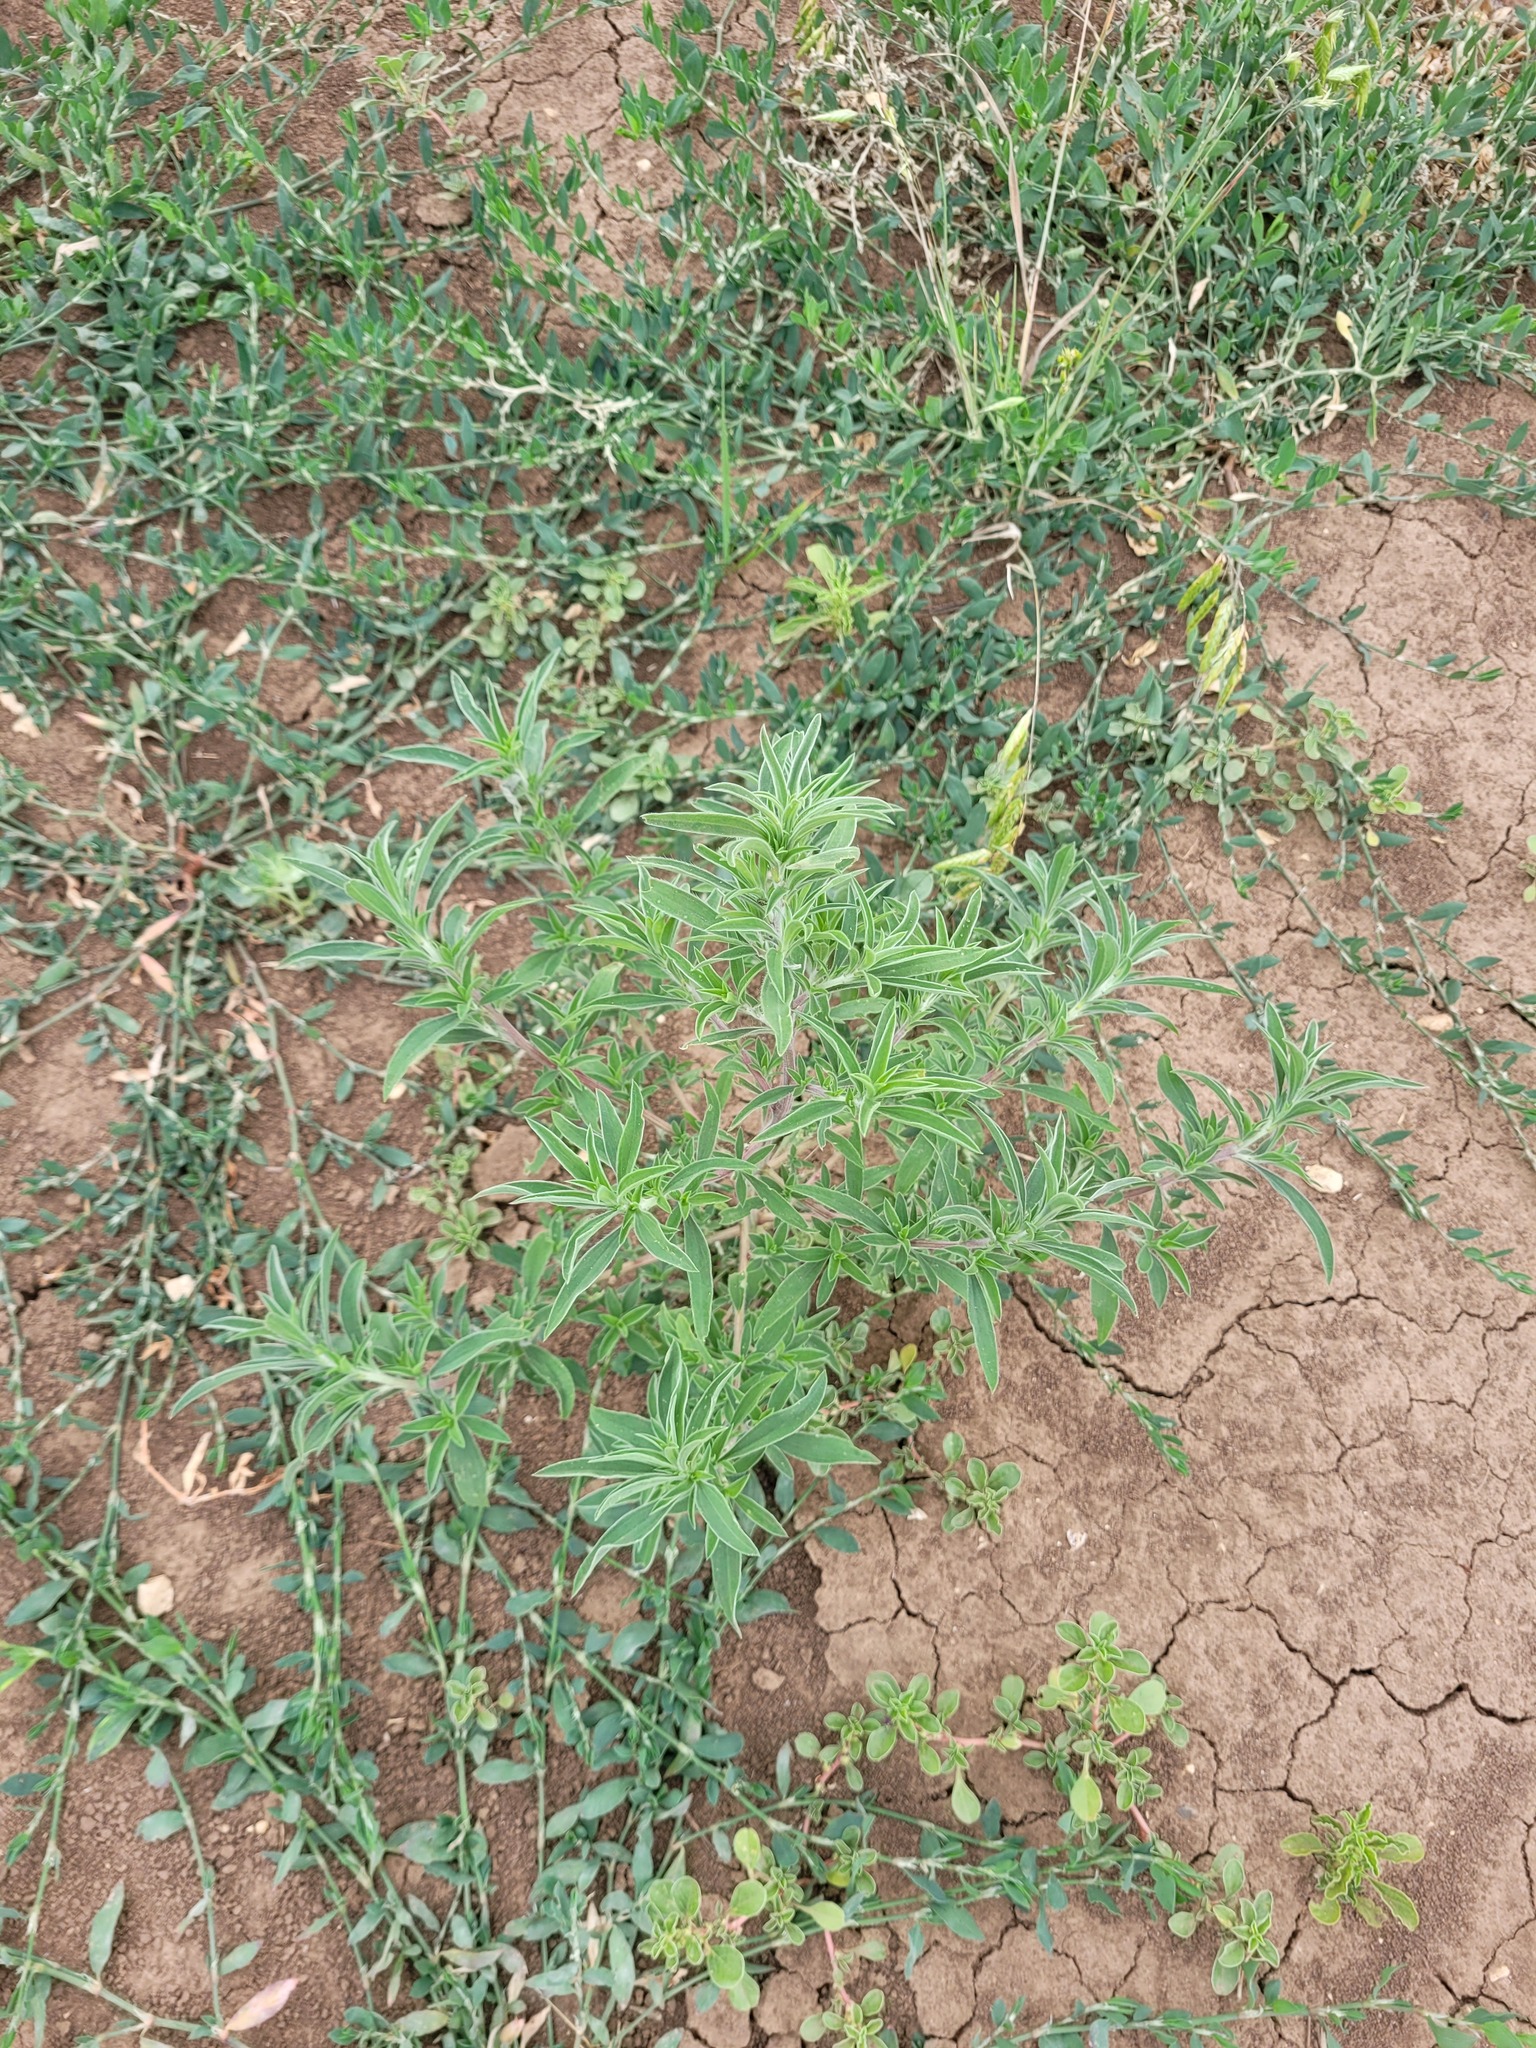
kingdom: Plantae
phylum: Tracheophyta
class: Magnoliopsida
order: Caryophyllales
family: Amaranthaceae
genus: Bassia
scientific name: Bassia scoparia
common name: Belvedere
